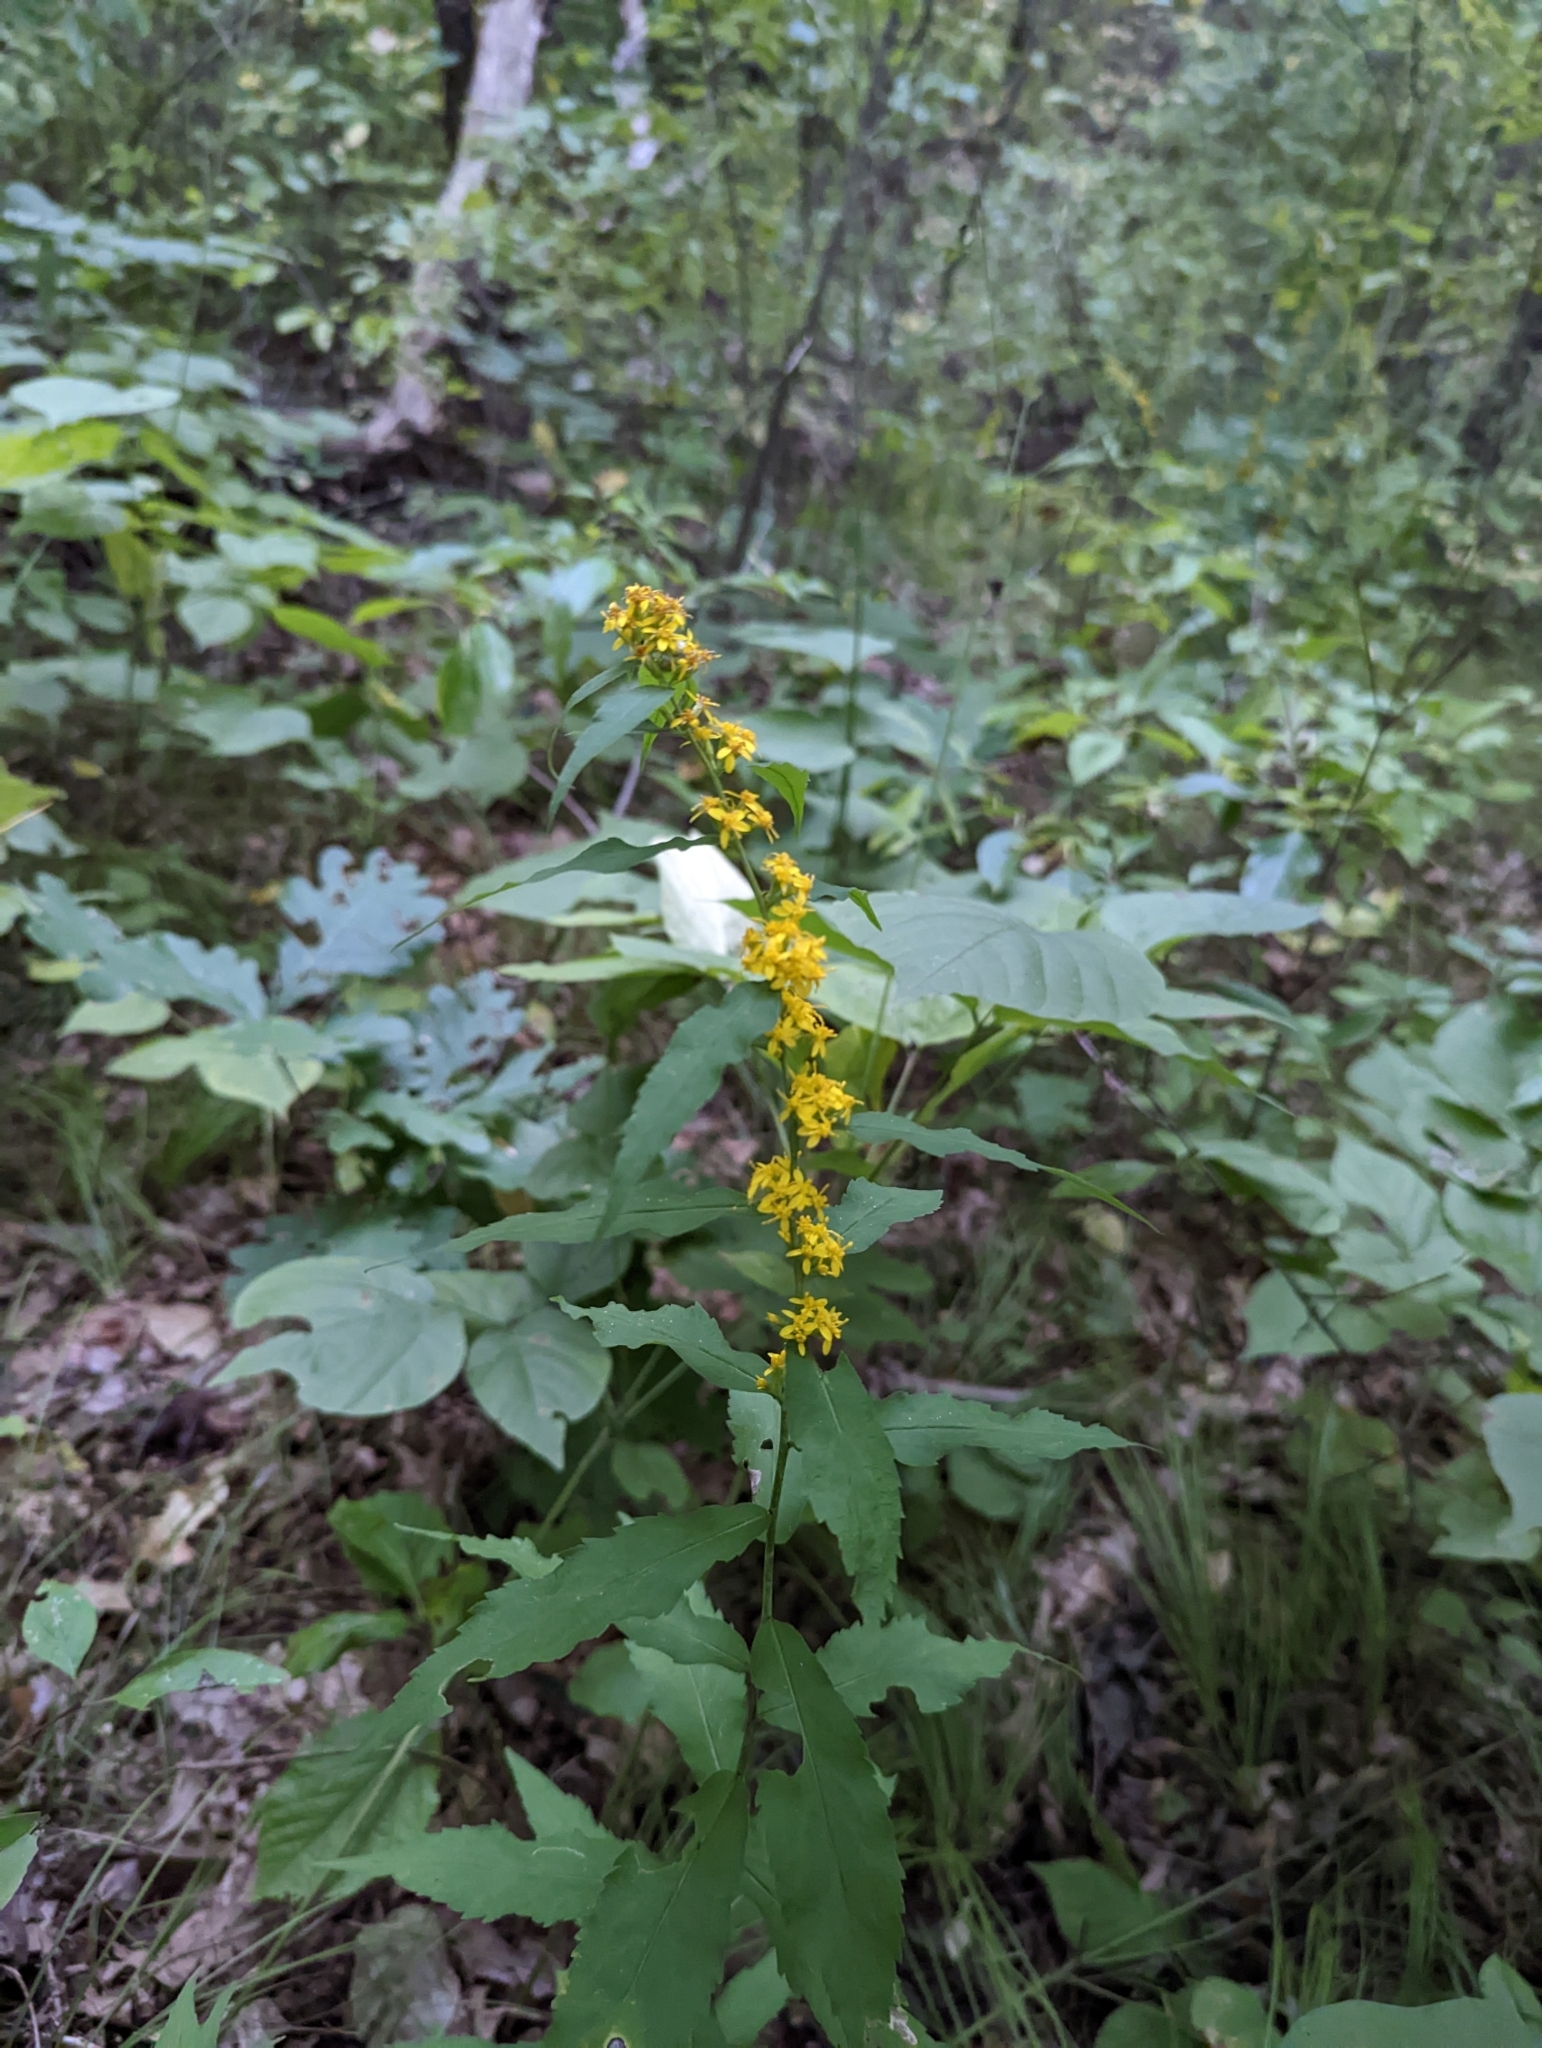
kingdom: Plantae
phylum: Tracheophyta
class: Magnoliopsida
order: Asterales
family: Asteraceae
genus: Solidago
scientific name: Solidago caesia
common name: Woodland goldenrod
